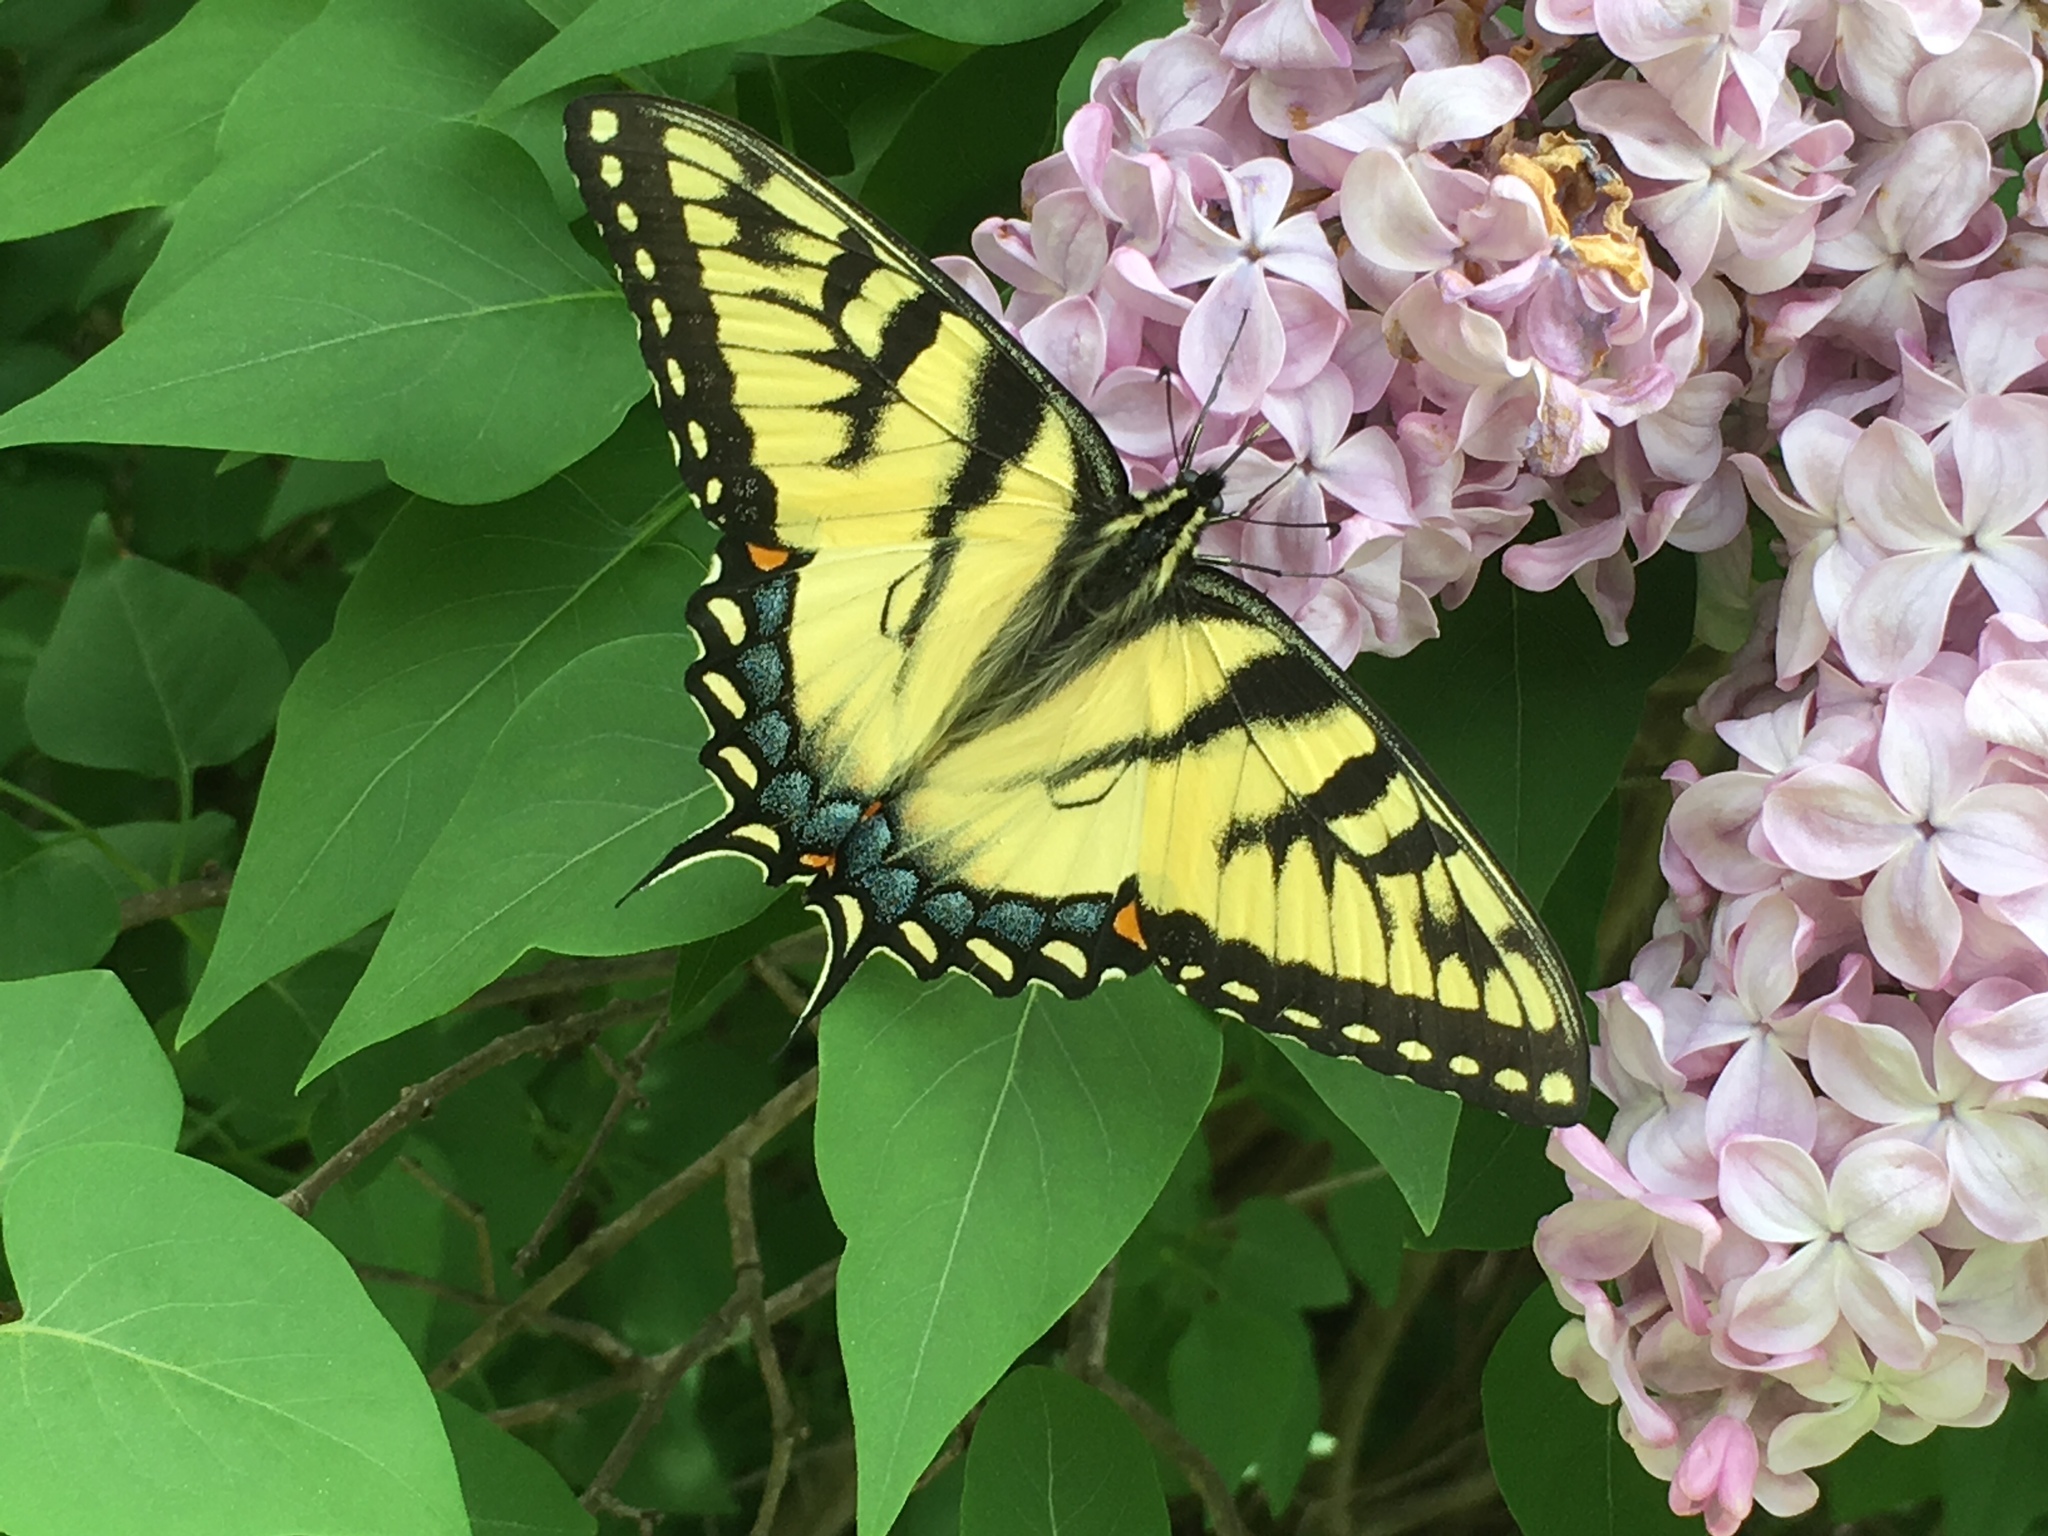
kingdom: Animalia
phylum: Arthropoda
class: Insecta
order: Lepidoptera
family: Papilionidae
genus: Papilio
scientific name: Papilio glaucus
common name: Tiger swallowtail
